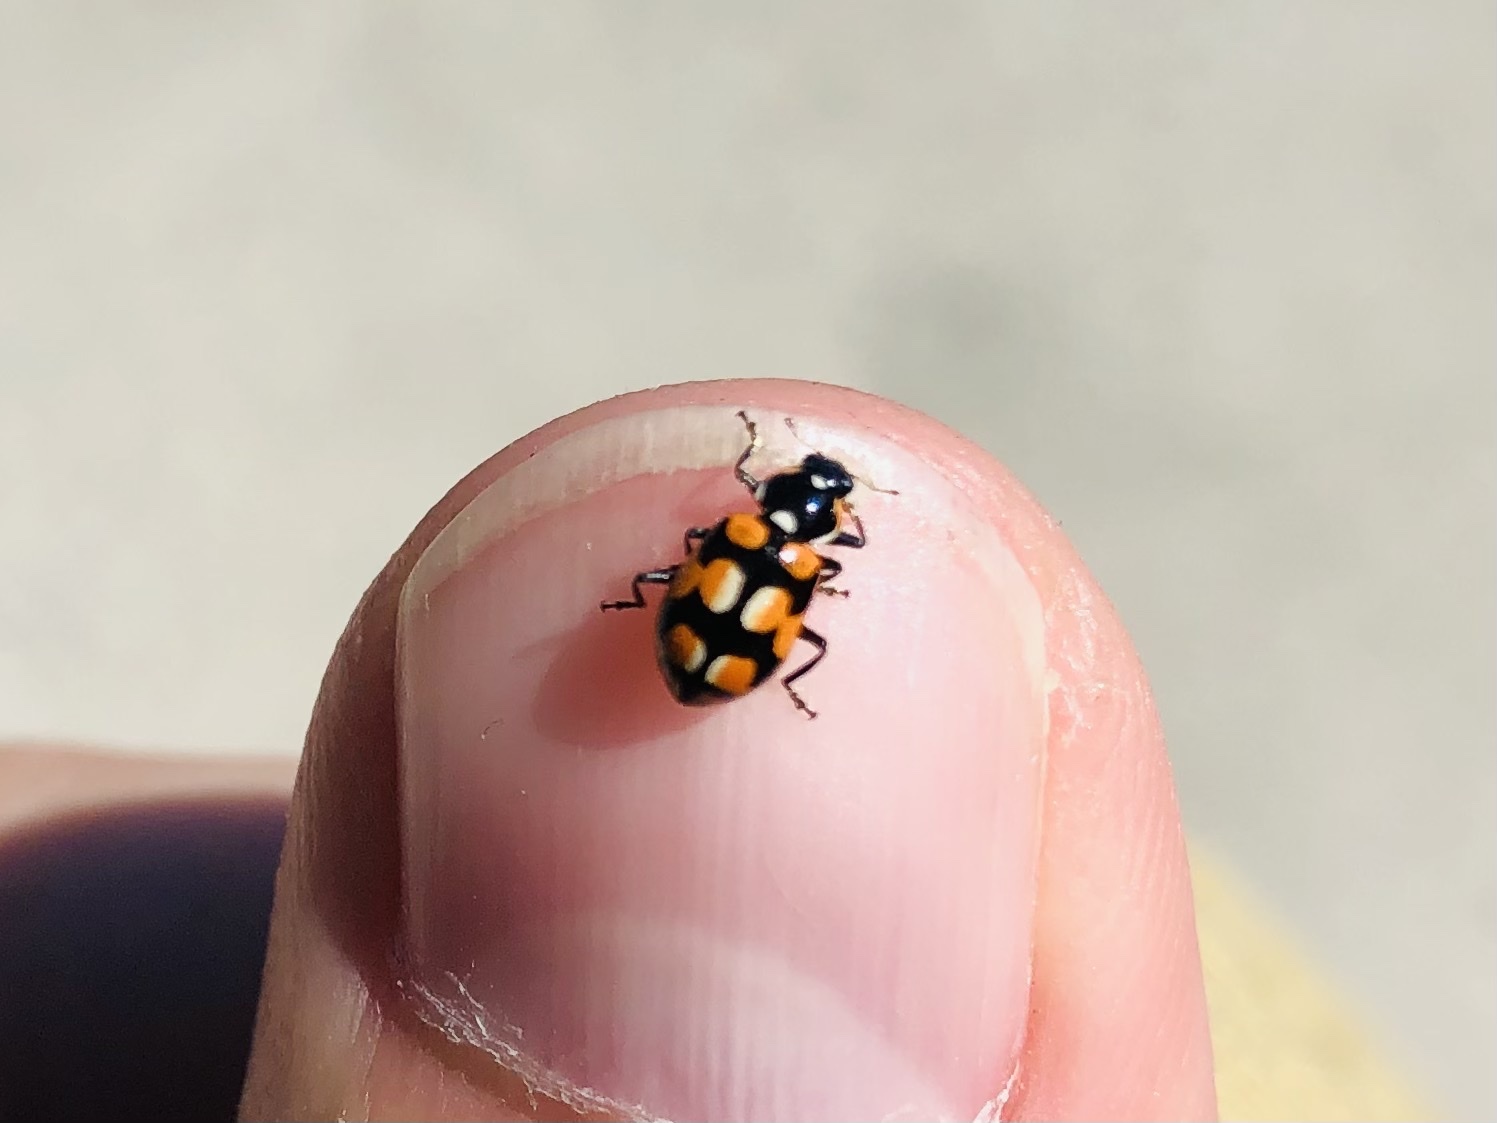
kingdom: Animalia
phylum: Arthropoda
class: Insecta
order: Coleoptera
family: Coccinellidae
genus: Eriopis
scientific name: Eriopis chilensis
